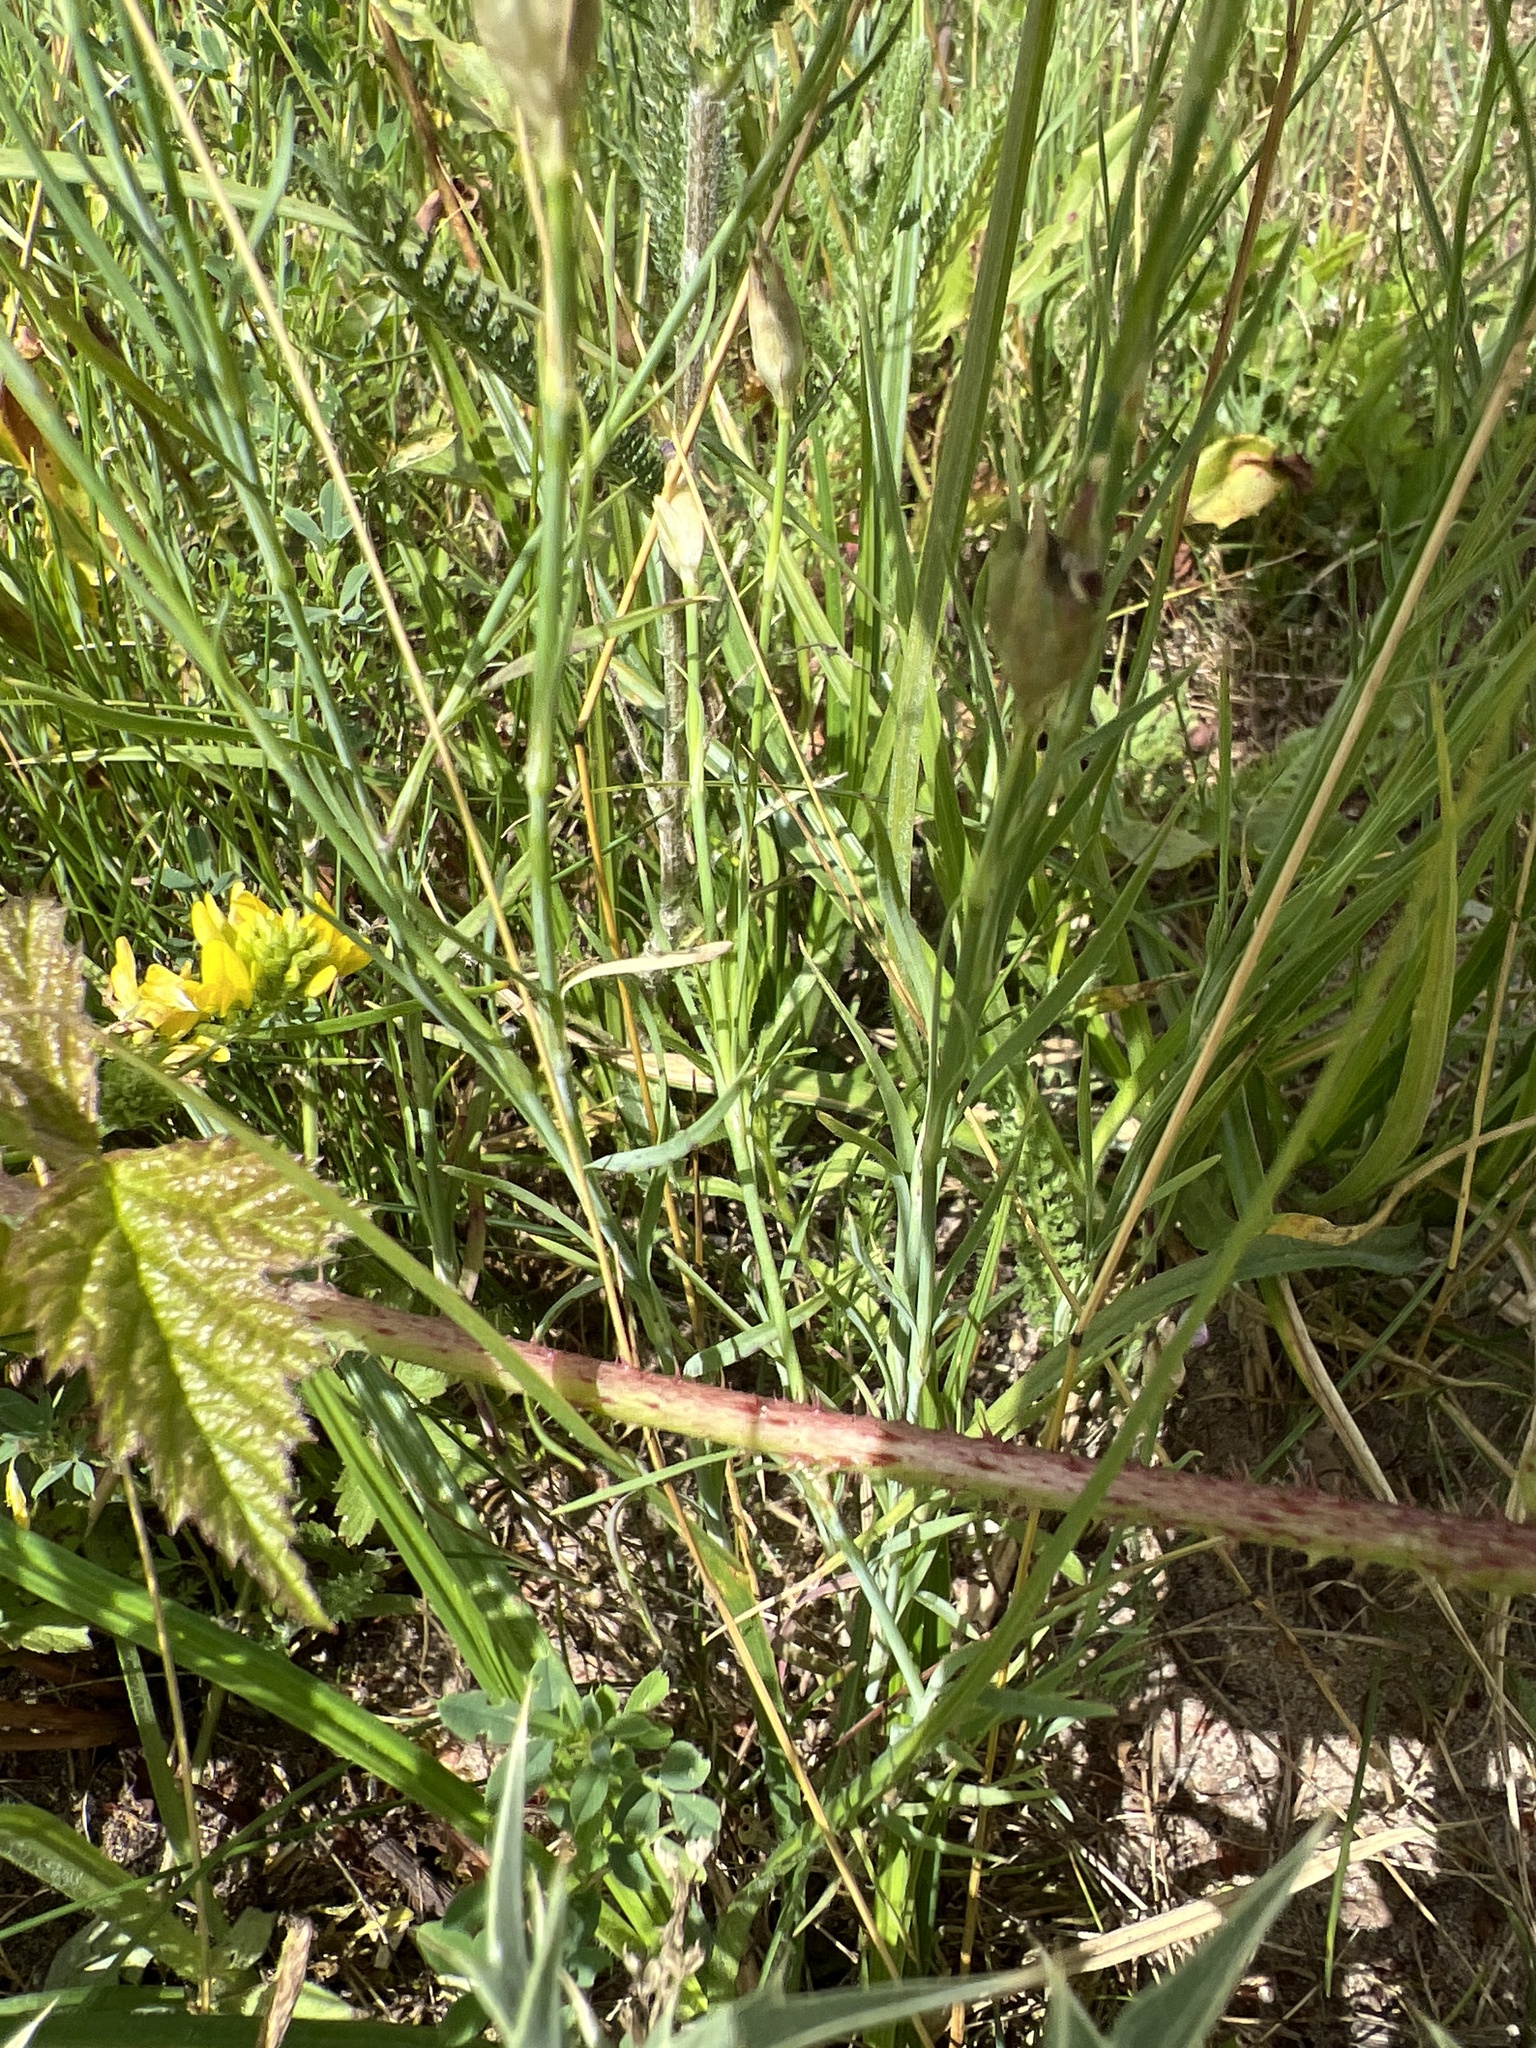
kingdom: Plantae
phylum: Tracheophyta
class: Magnoliopsida
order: Caryophyllales
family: Caryophyllaceae
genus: Petrorhagia
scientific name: Petrorhagia prolifera
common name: Proliferous pink
